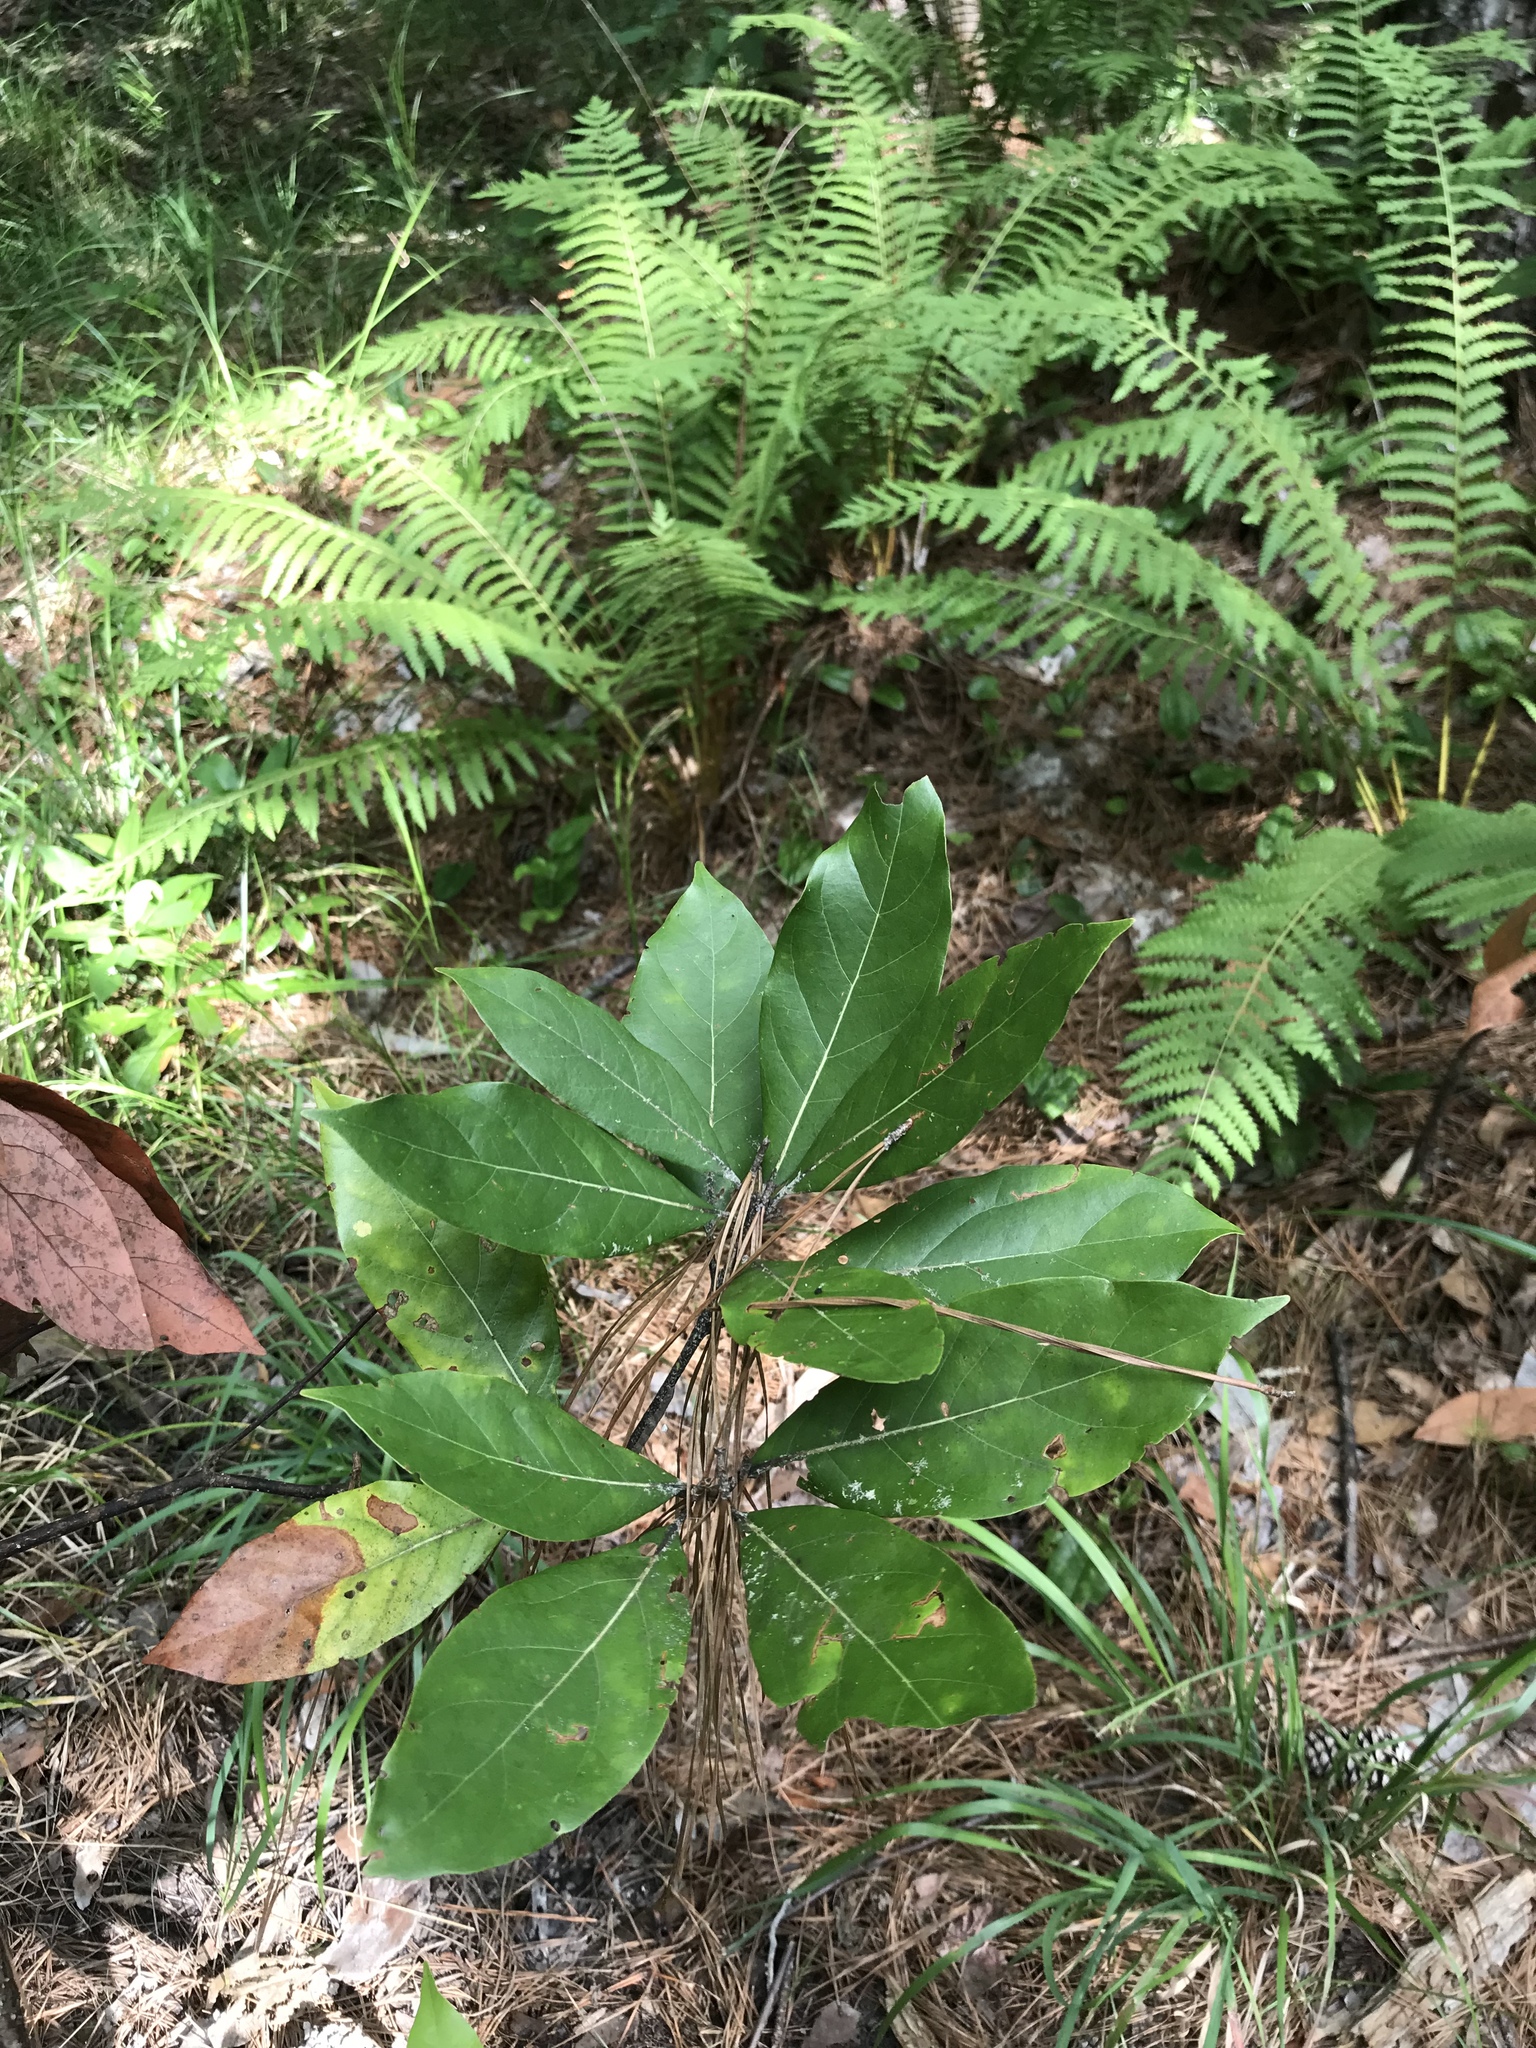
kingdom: Plantae
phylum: Tracheophyta
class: Magnoliopsida
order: Laurales
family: Lauraceae
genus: Persea
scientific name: Persea borbonia
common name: Redbay
